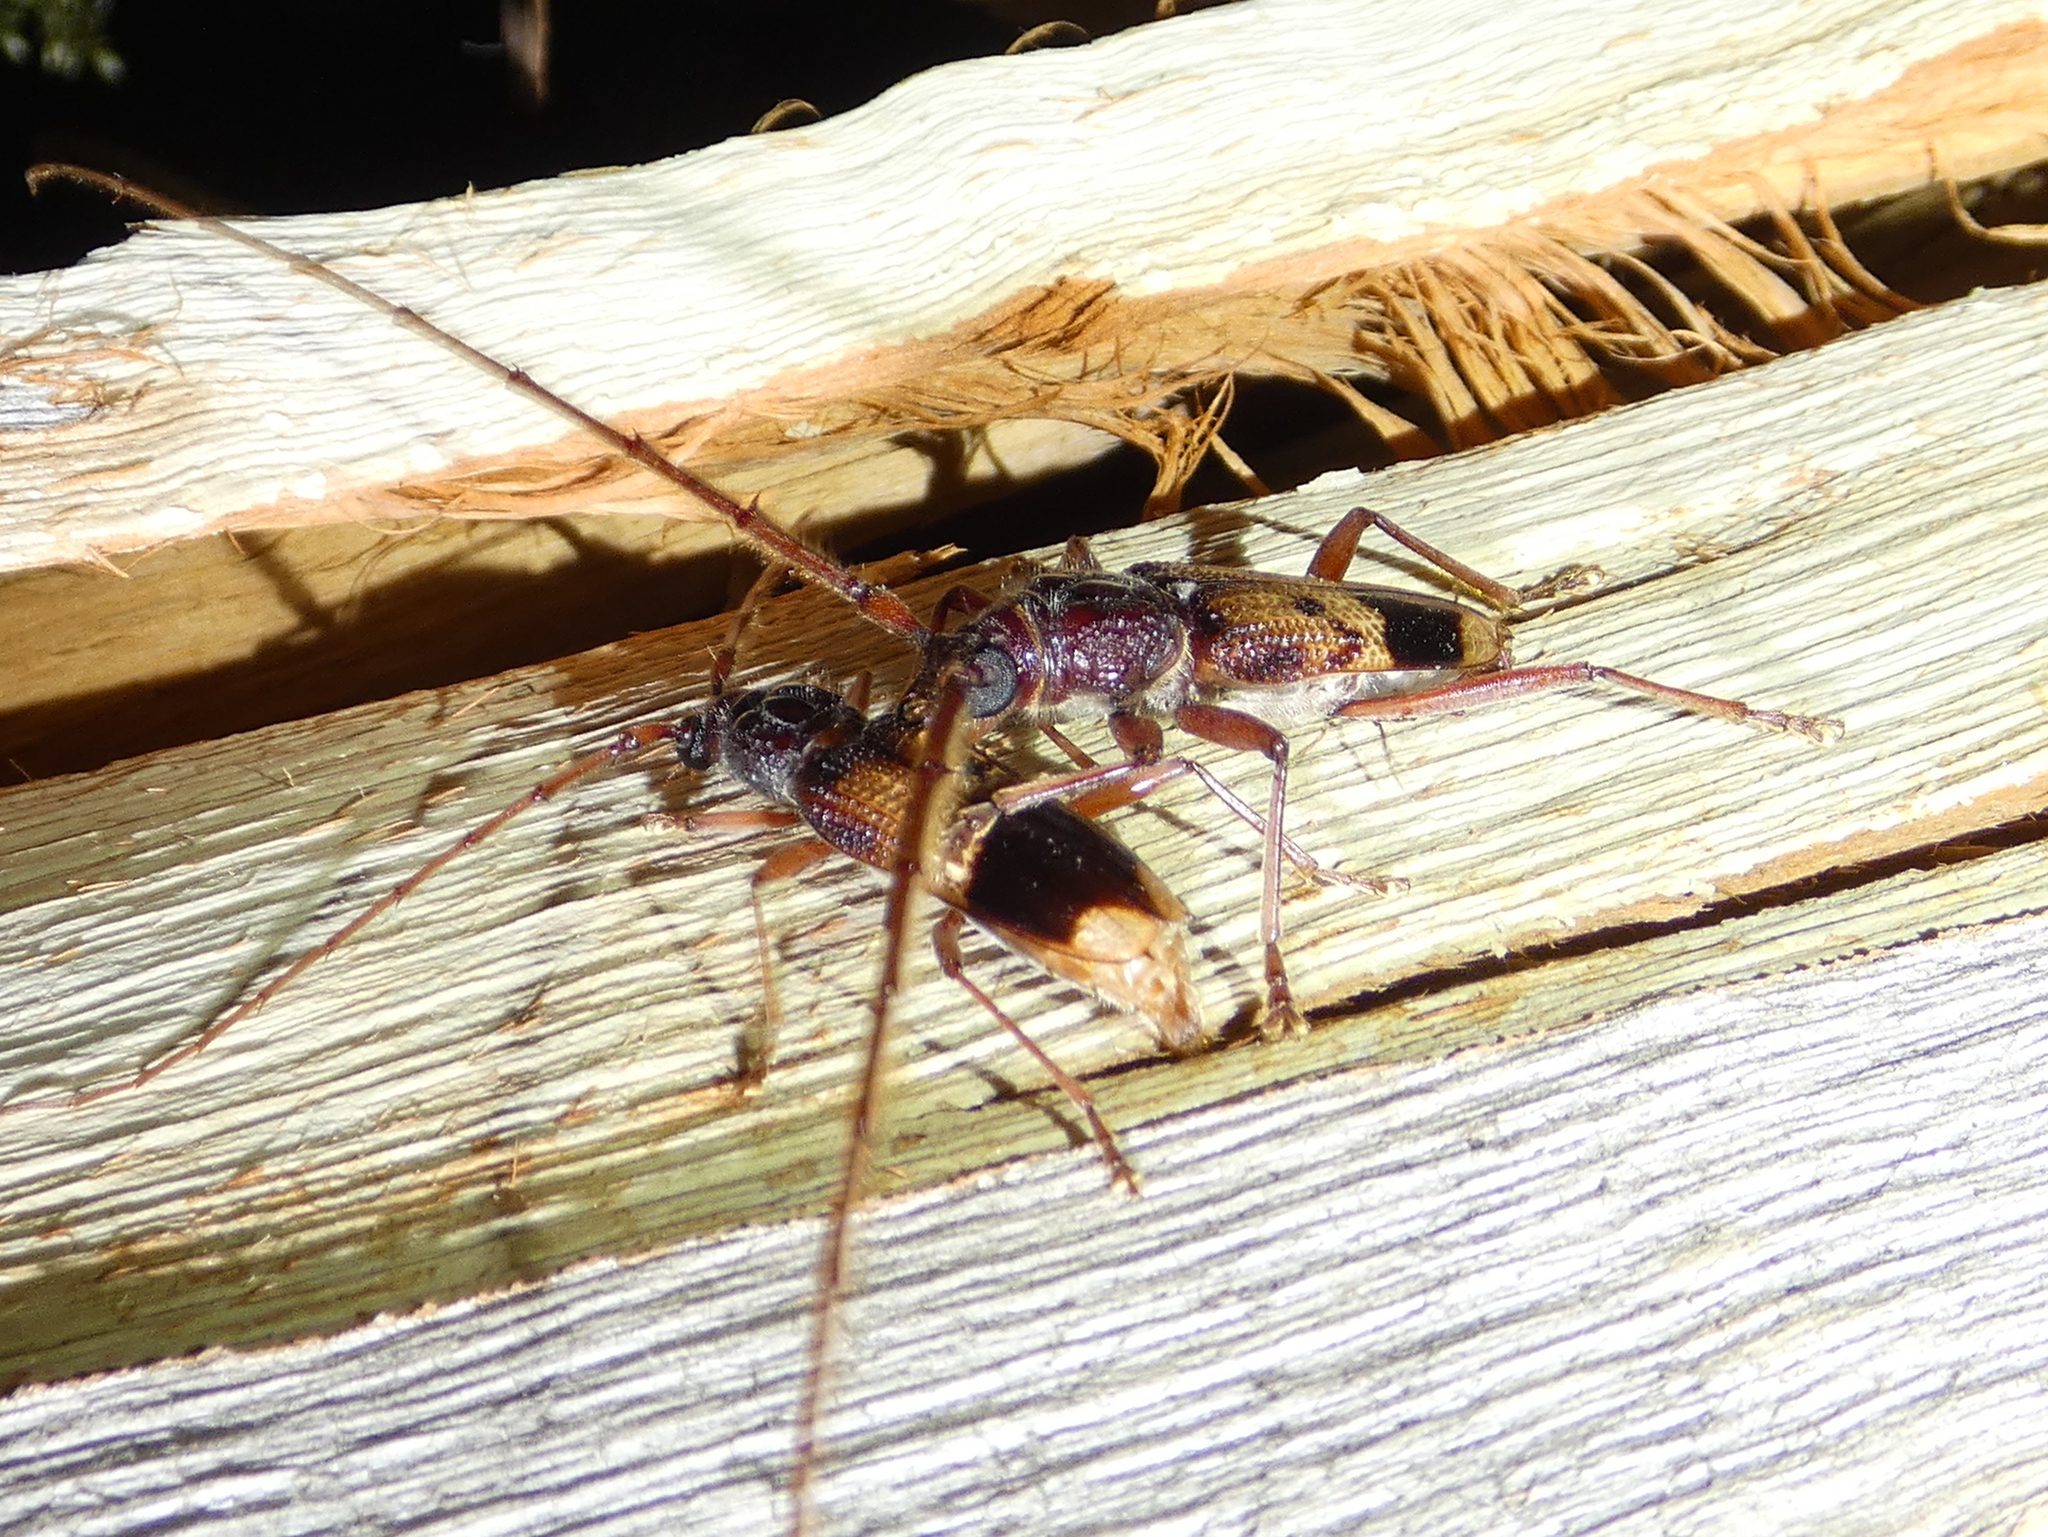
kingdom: Animalia
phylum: Arthropoda
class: Insecta
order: Coleoptera
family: Cerambycidae
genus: Phoracantha
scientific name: Phoracantha recurva
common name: Eucalyptus longhorned borer
